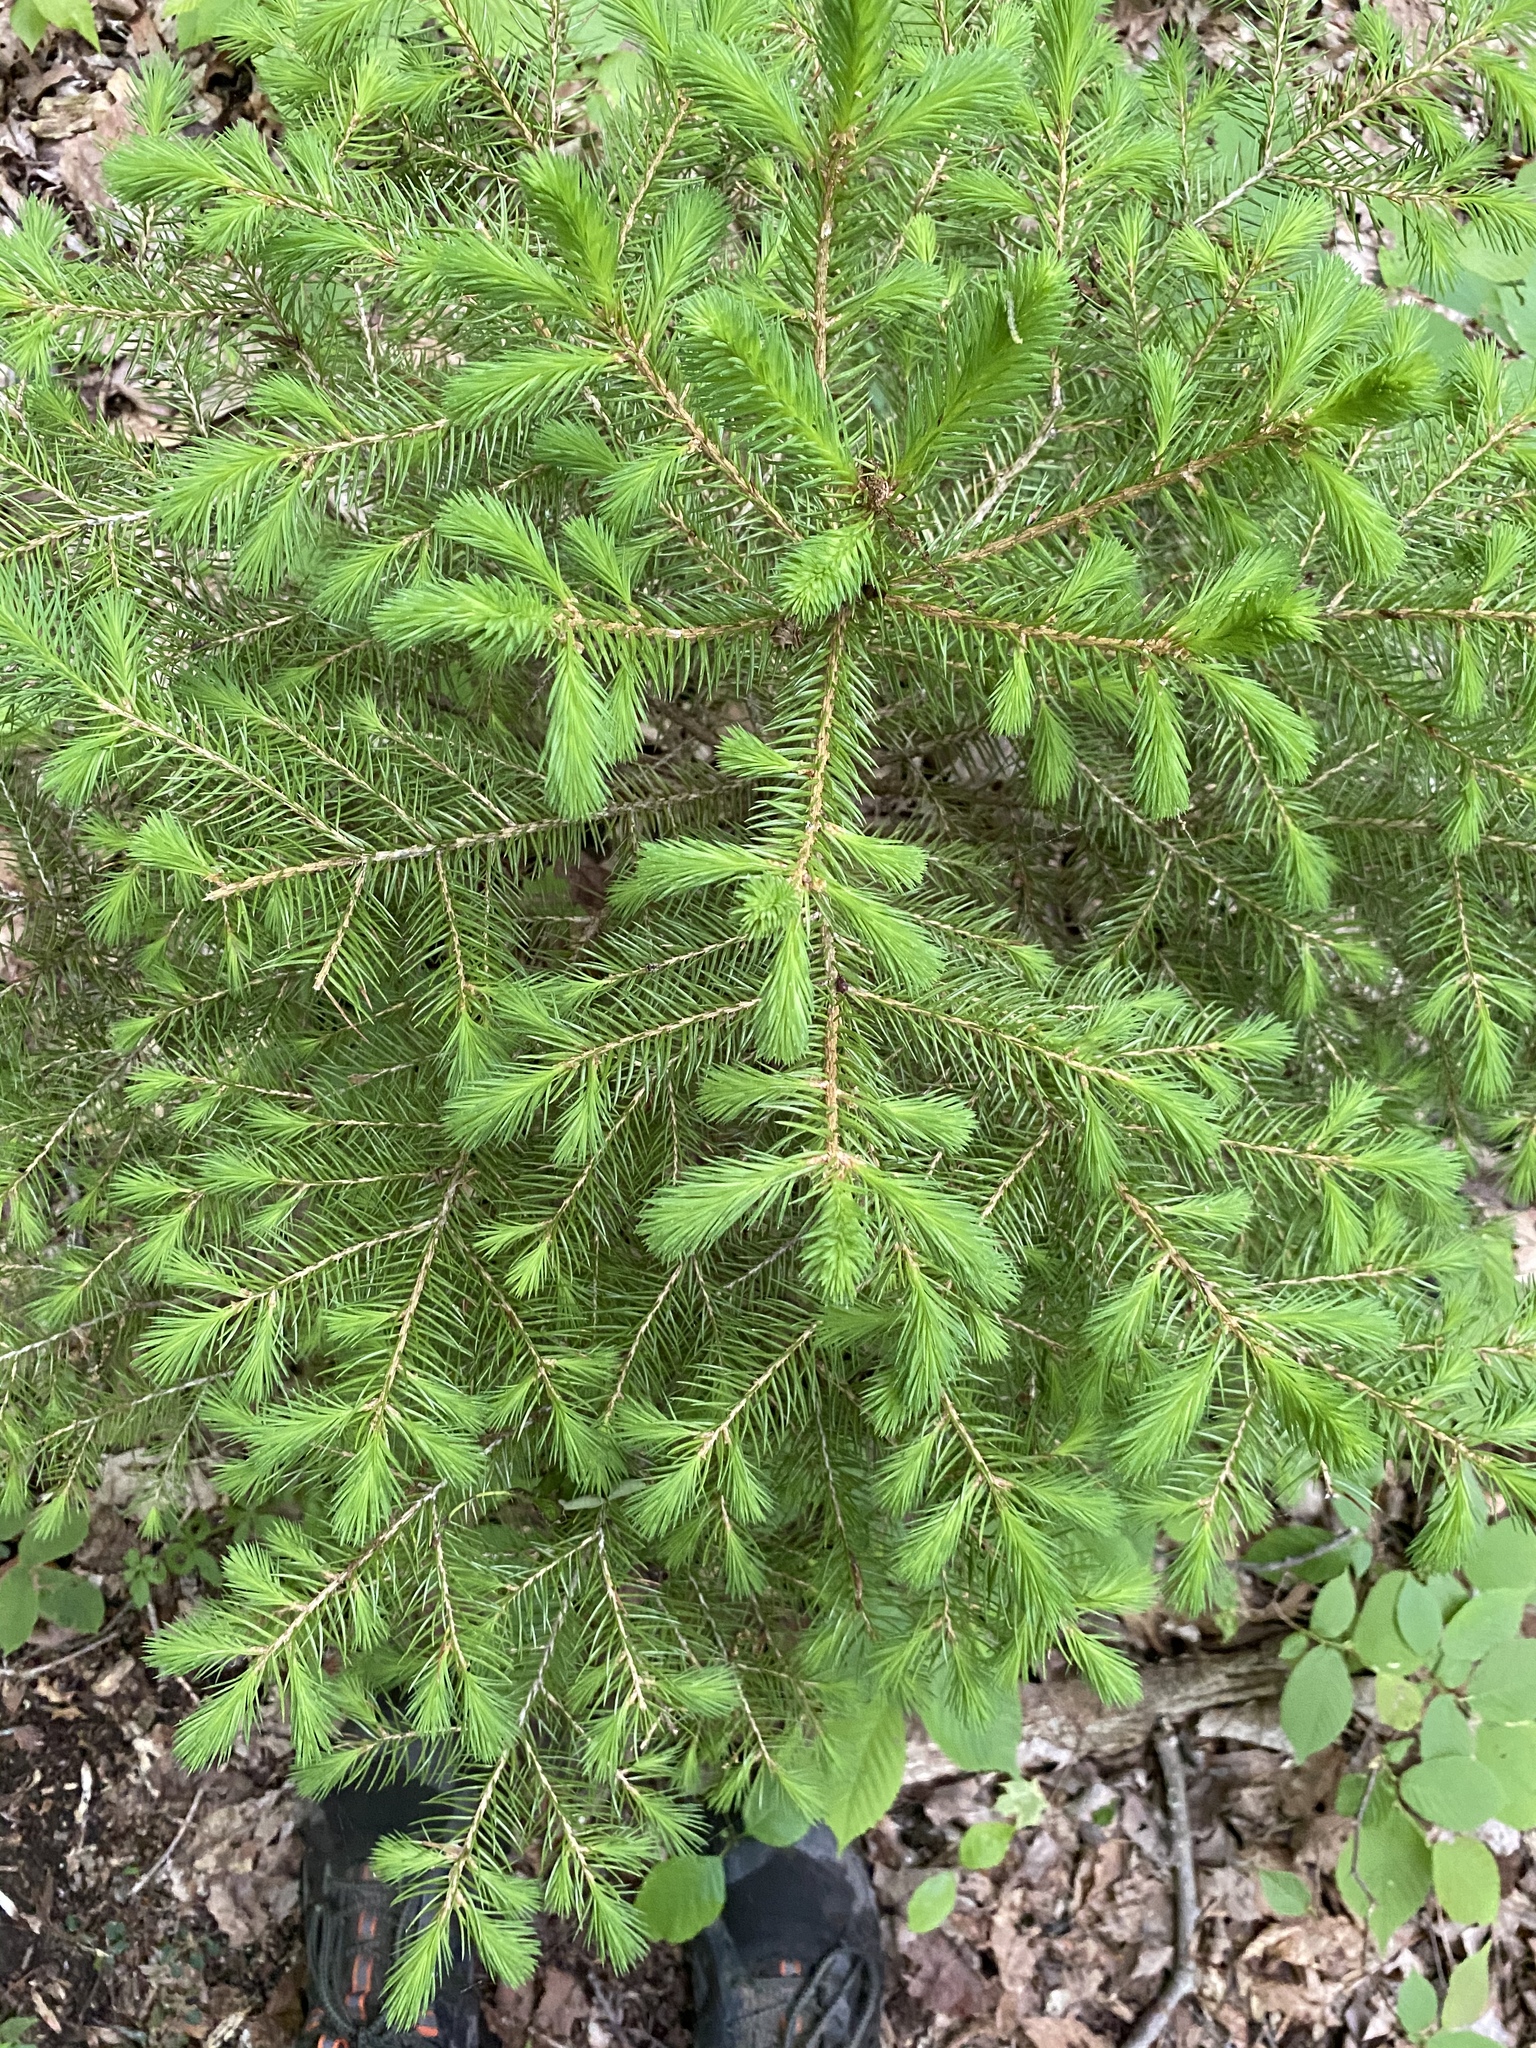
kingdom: Plantae
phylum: Tracheophyta
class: Pinopsida
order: Pinales
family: Pinaceae
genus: Picea
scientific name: Picea abies
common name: Norway spruce
